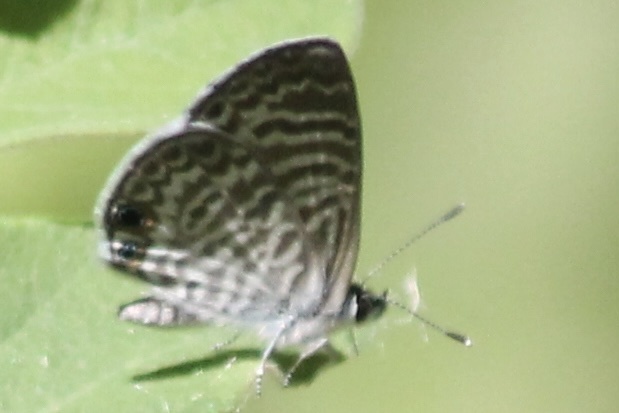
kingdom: Animalia
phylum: Arthropoda
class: Insecta
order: Lepidoptera
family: Lycaenidae
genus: Leptotes
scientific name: Leptotes marina
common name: Marine blue
